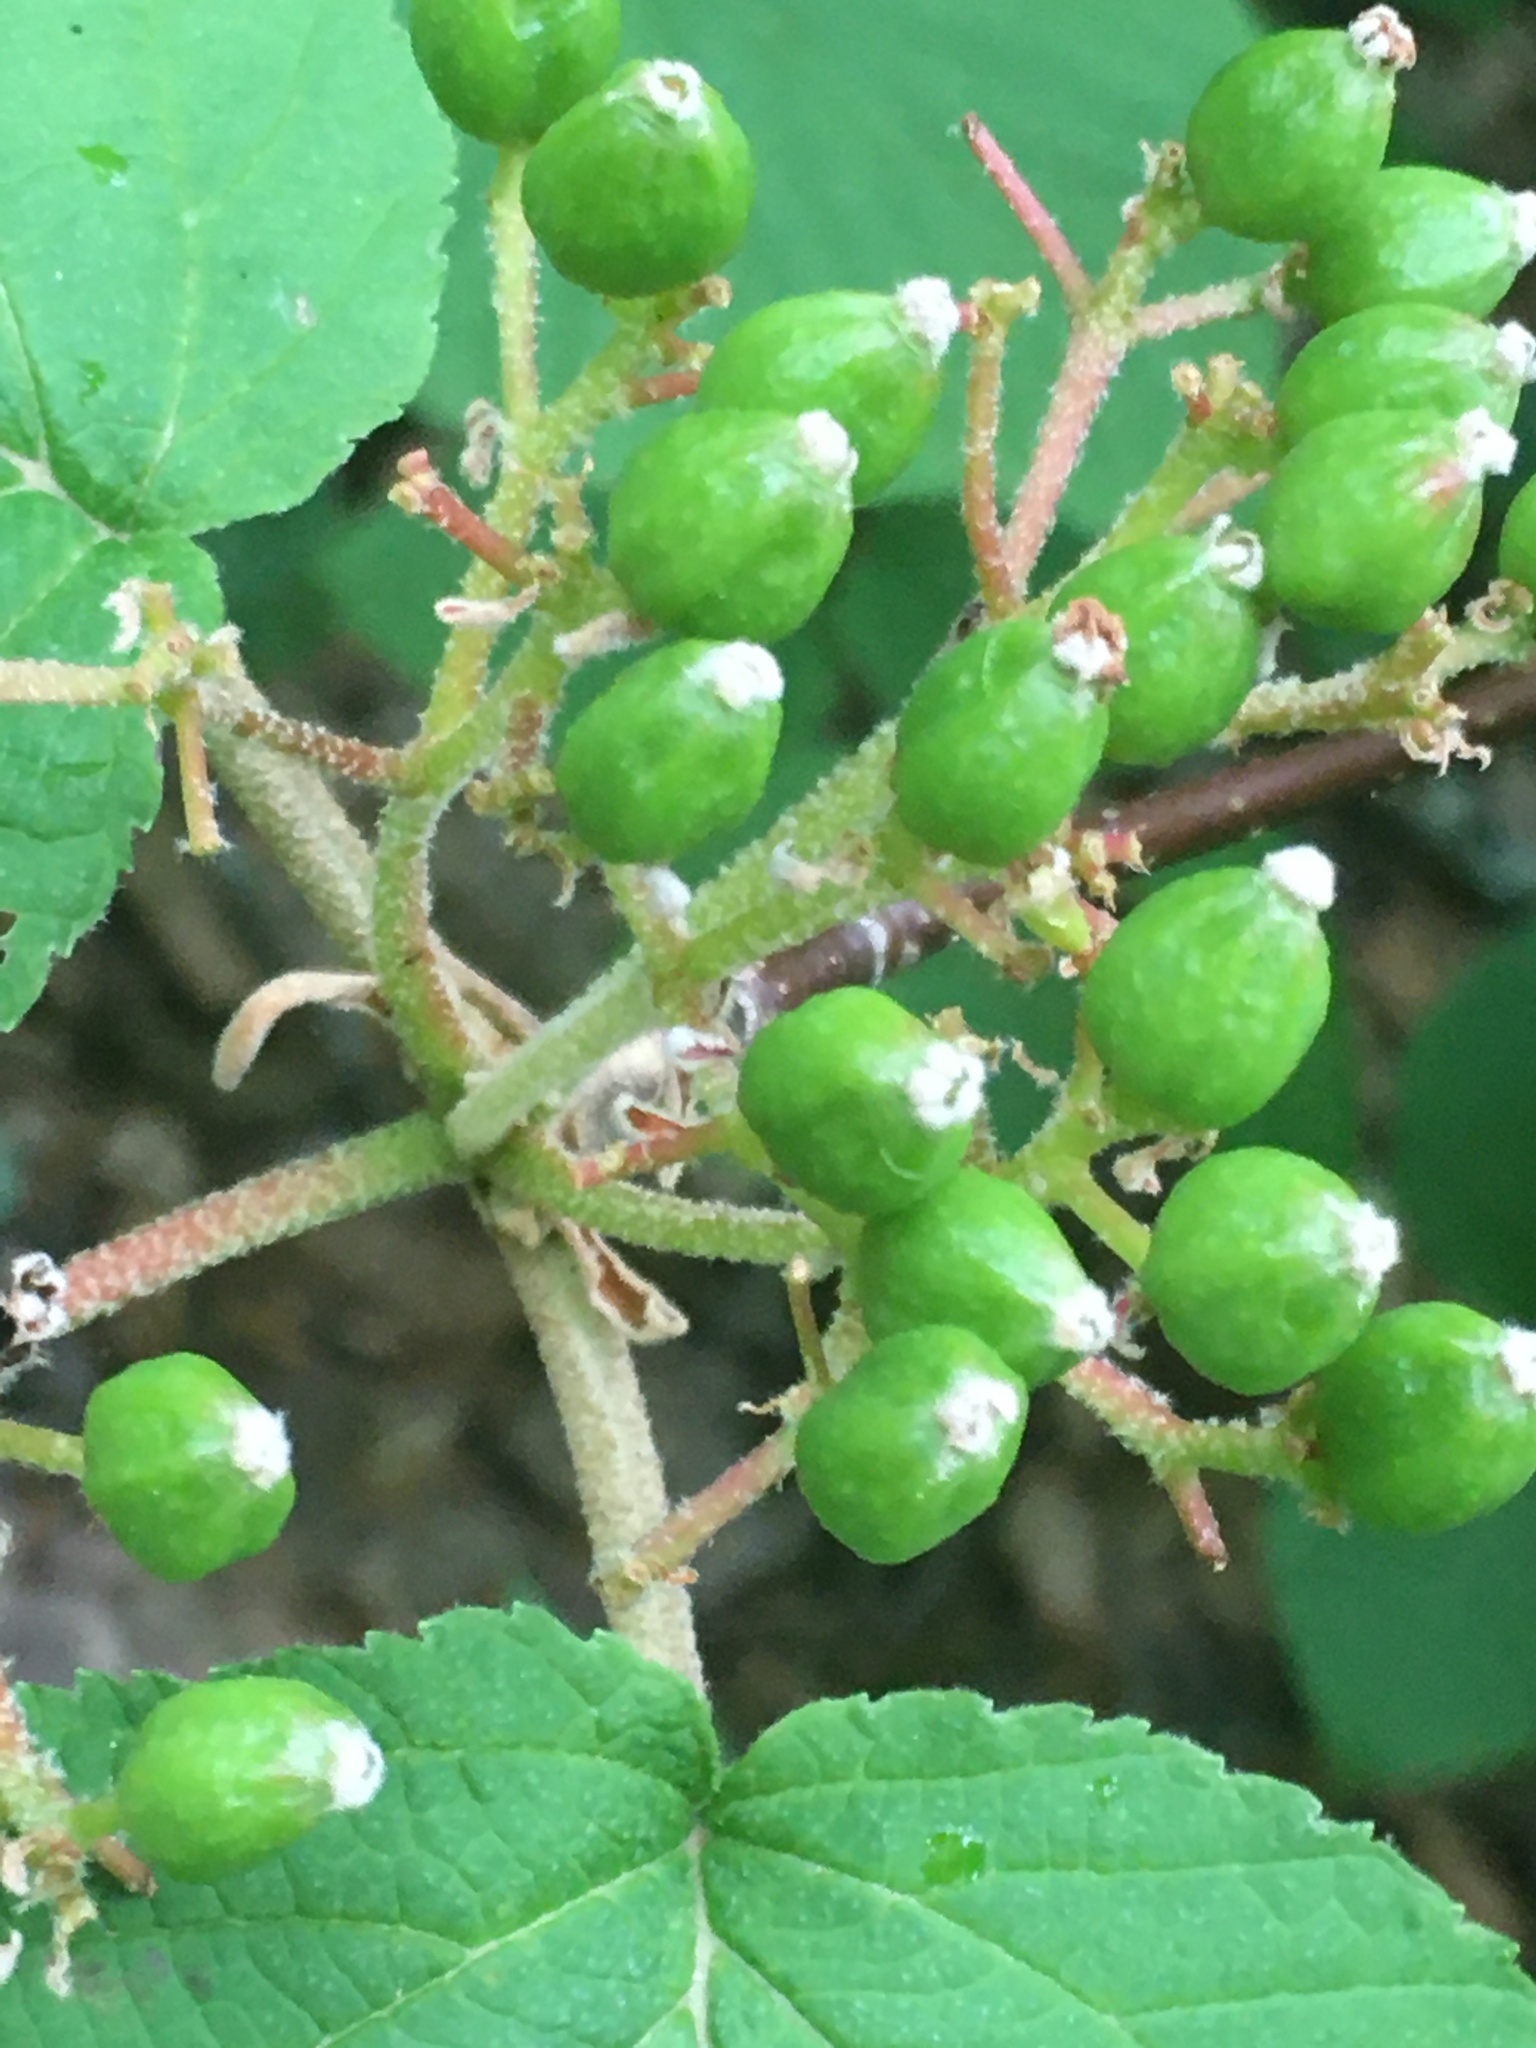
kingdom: Plantae
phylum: Tracheophyta
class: Magnoliopsida
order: Dipsacales
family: Viburnaceae
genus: Viburnum
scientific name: Viburnum lantanoides
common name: Hobblebush
